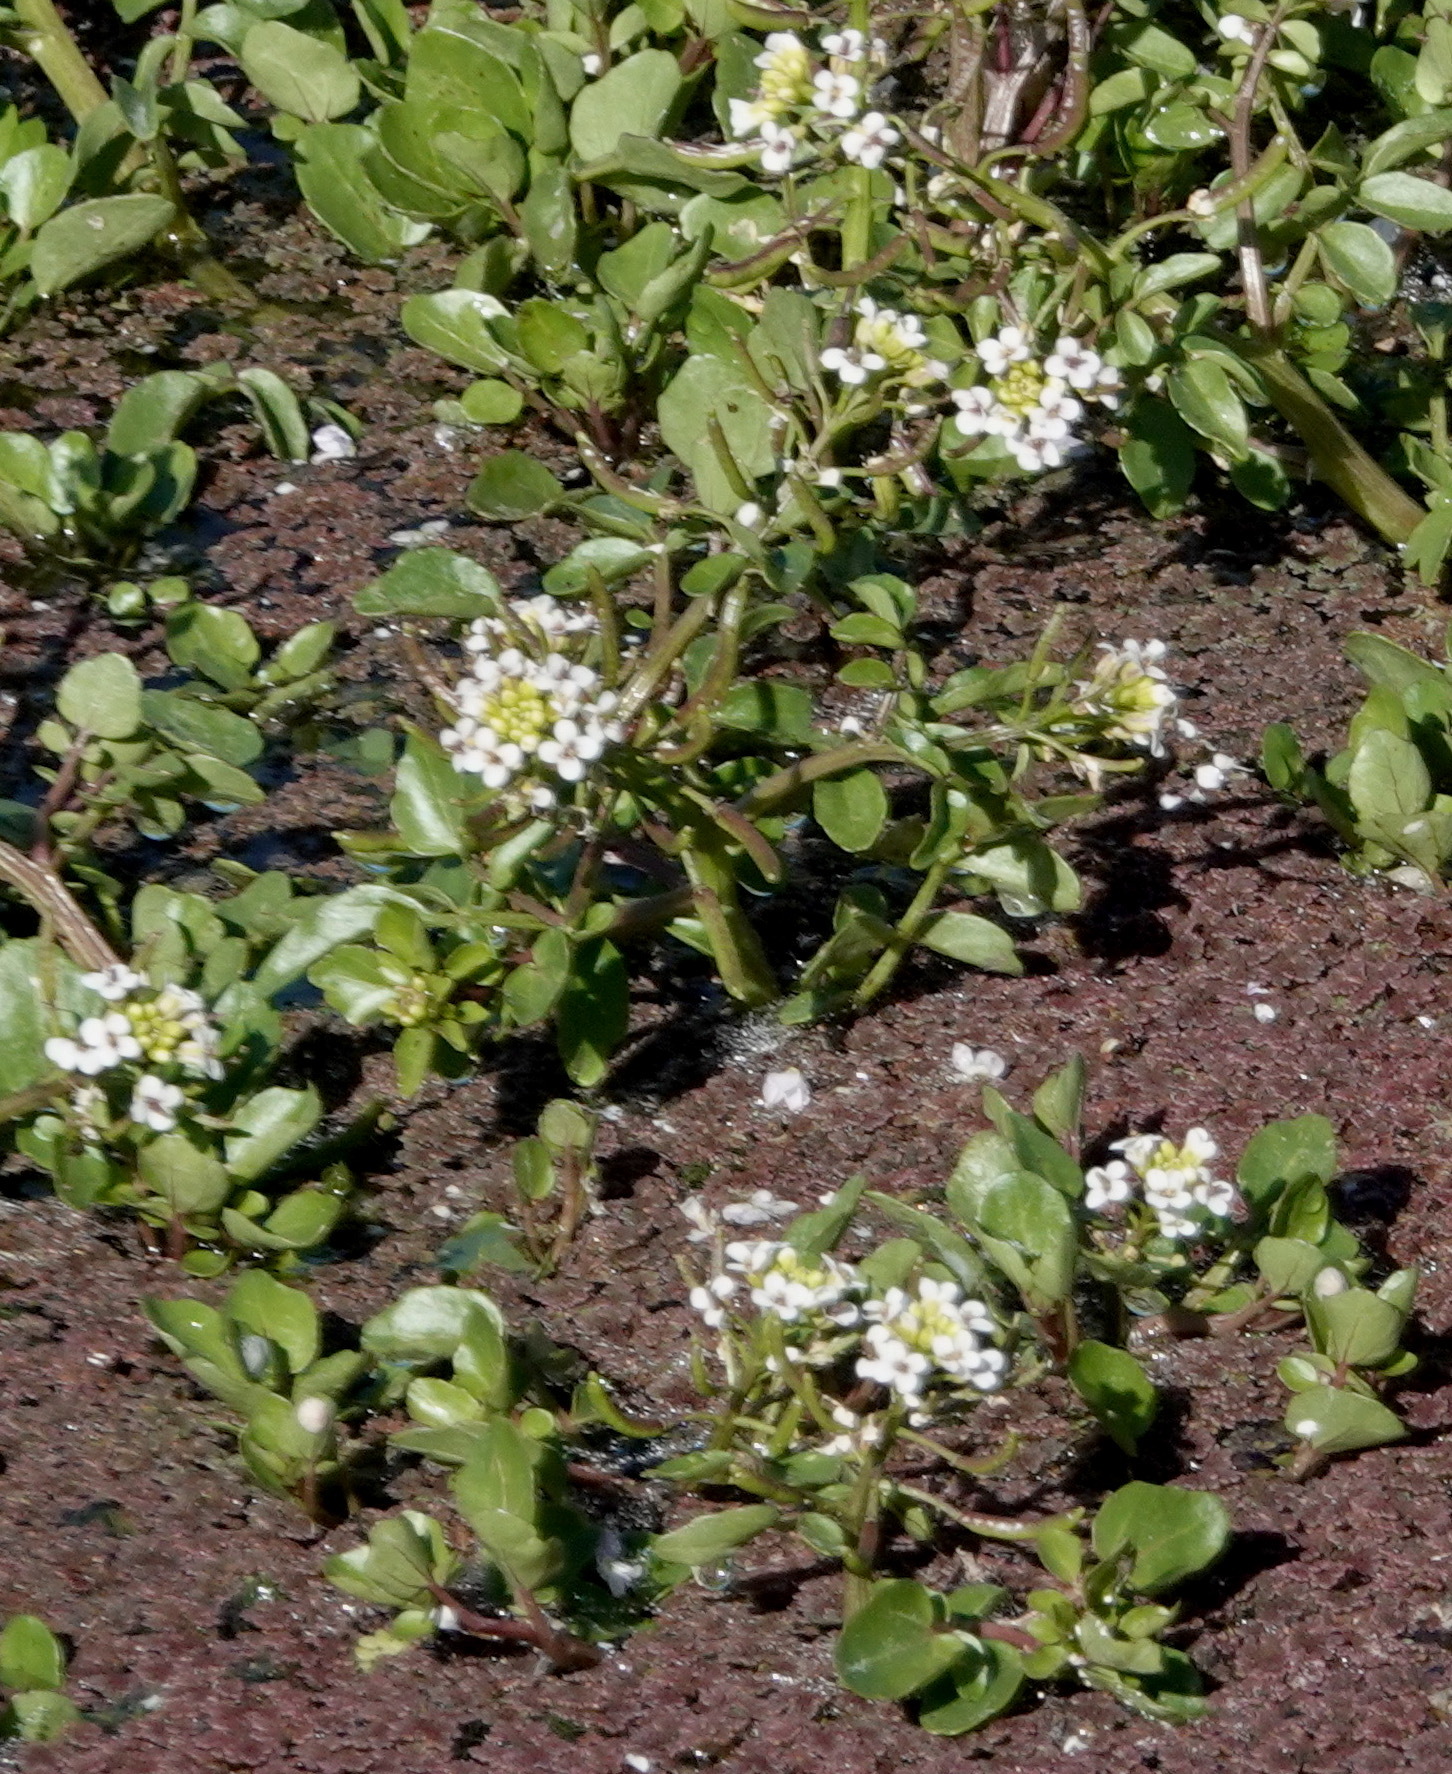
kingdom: Plantae
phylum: Tracheophyta
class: Magnoliopsida
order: Brassicales
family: Brassicaceae
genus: Nasturtium
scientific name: Nasturtium officinale
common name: Watercress
